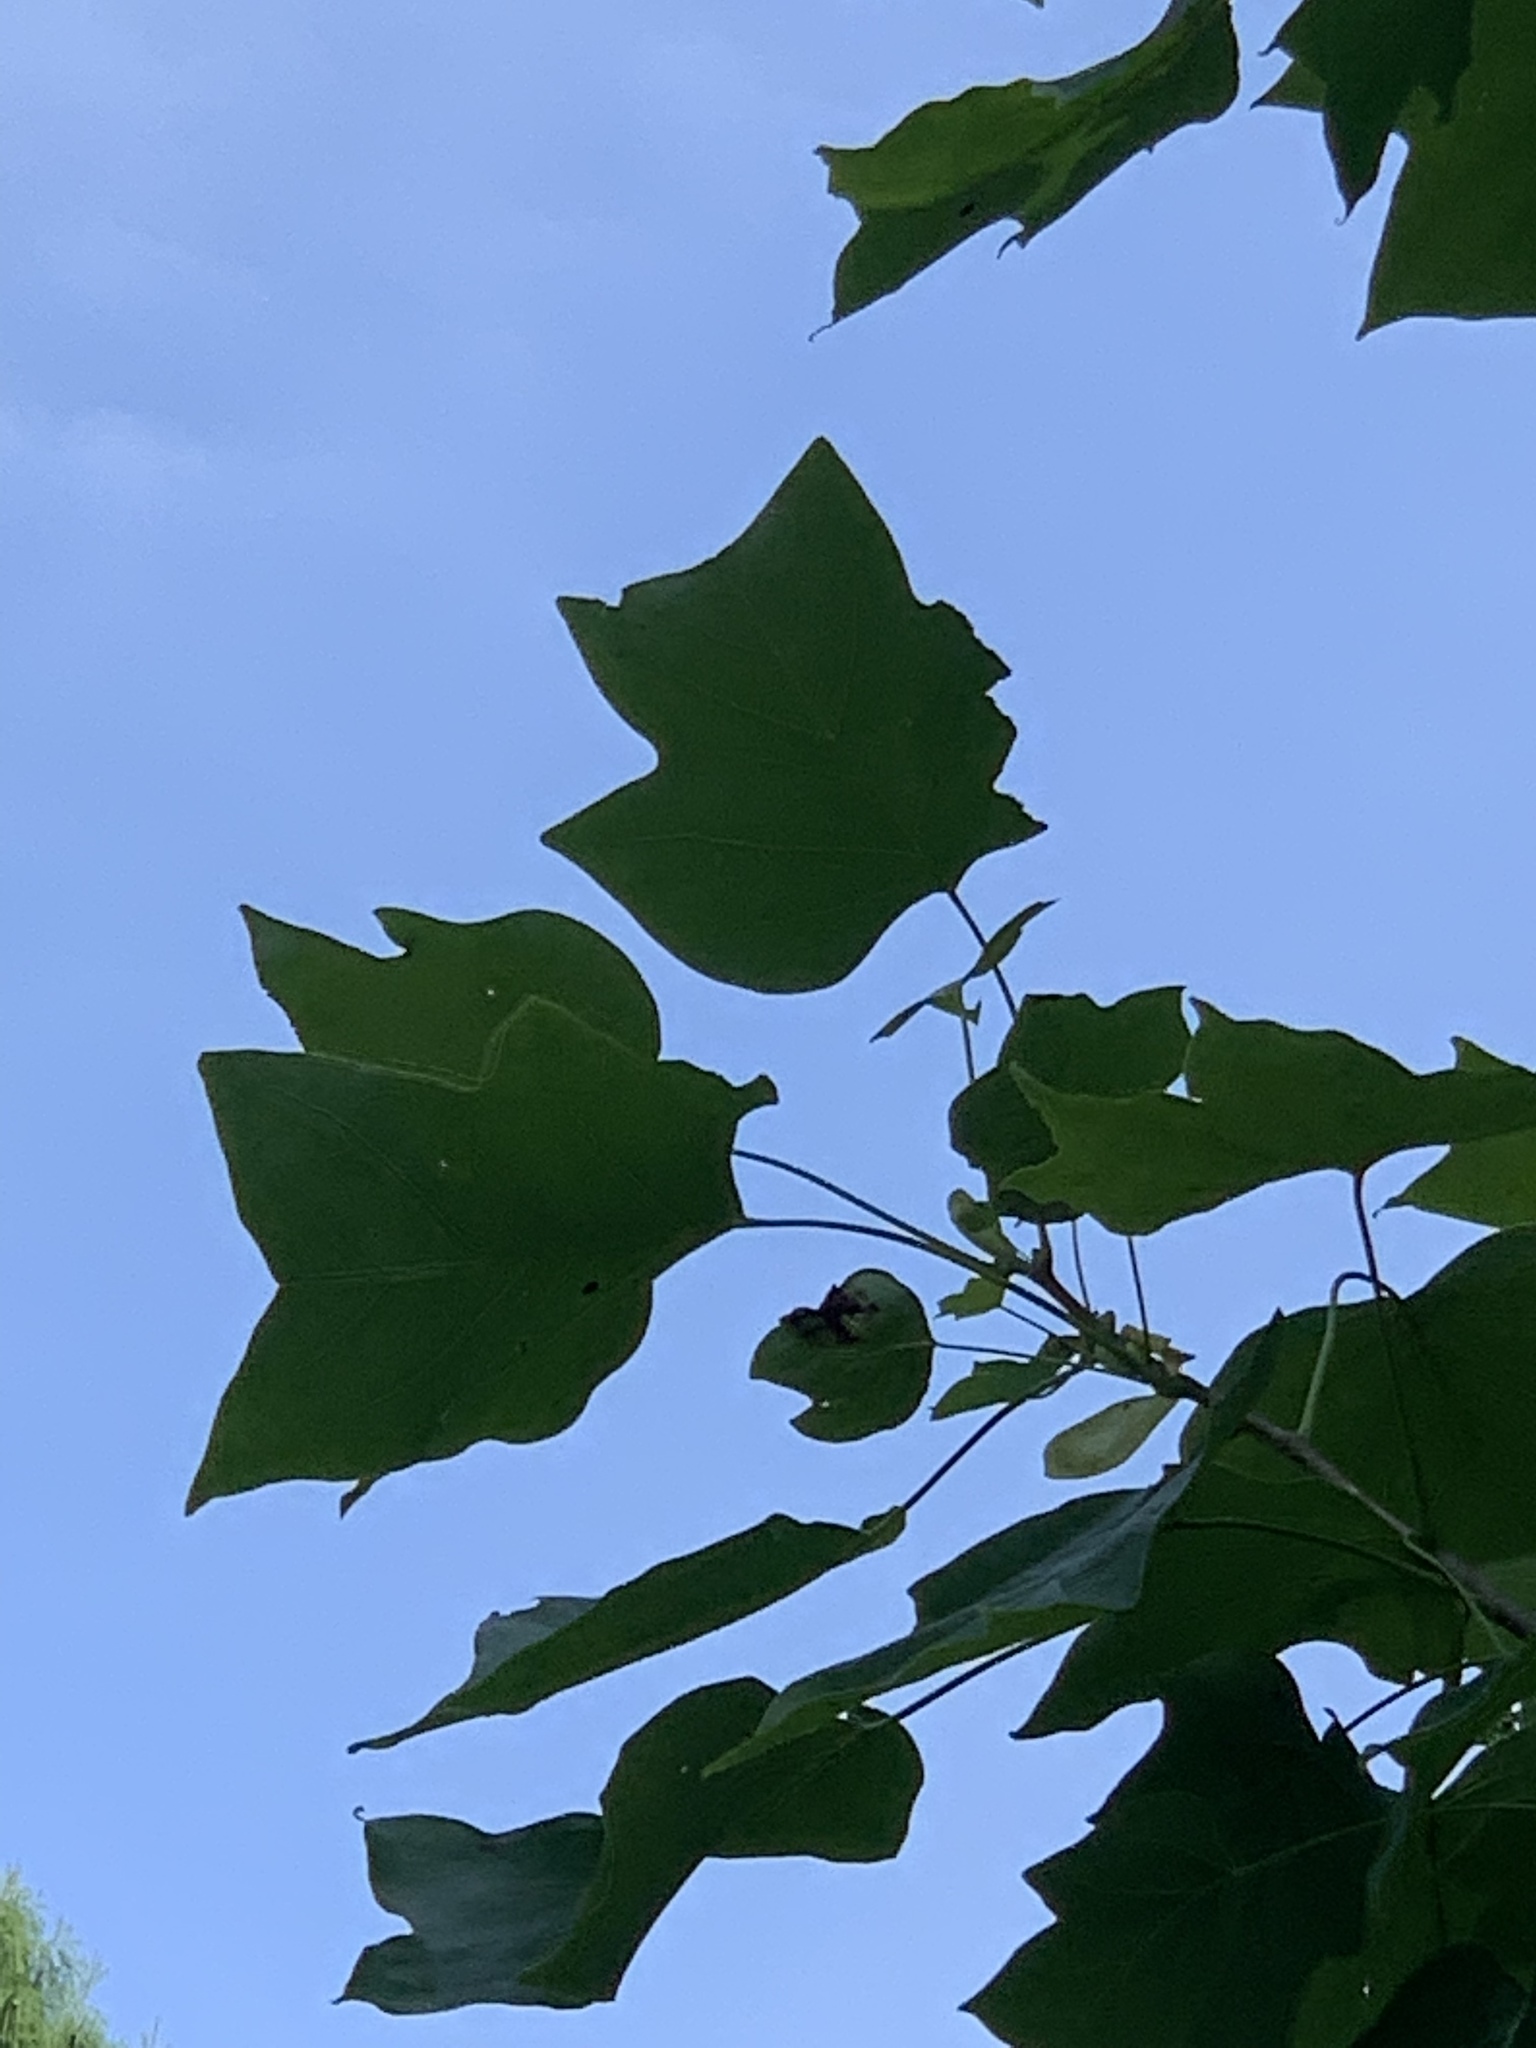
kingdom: Plantae
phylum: Tracheophyta
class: Magnoliopsida
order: Magnoliales
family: Magnoliaceae
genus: Liriodendron
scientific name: Liriodendron tulipifera
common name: Tulip tree
